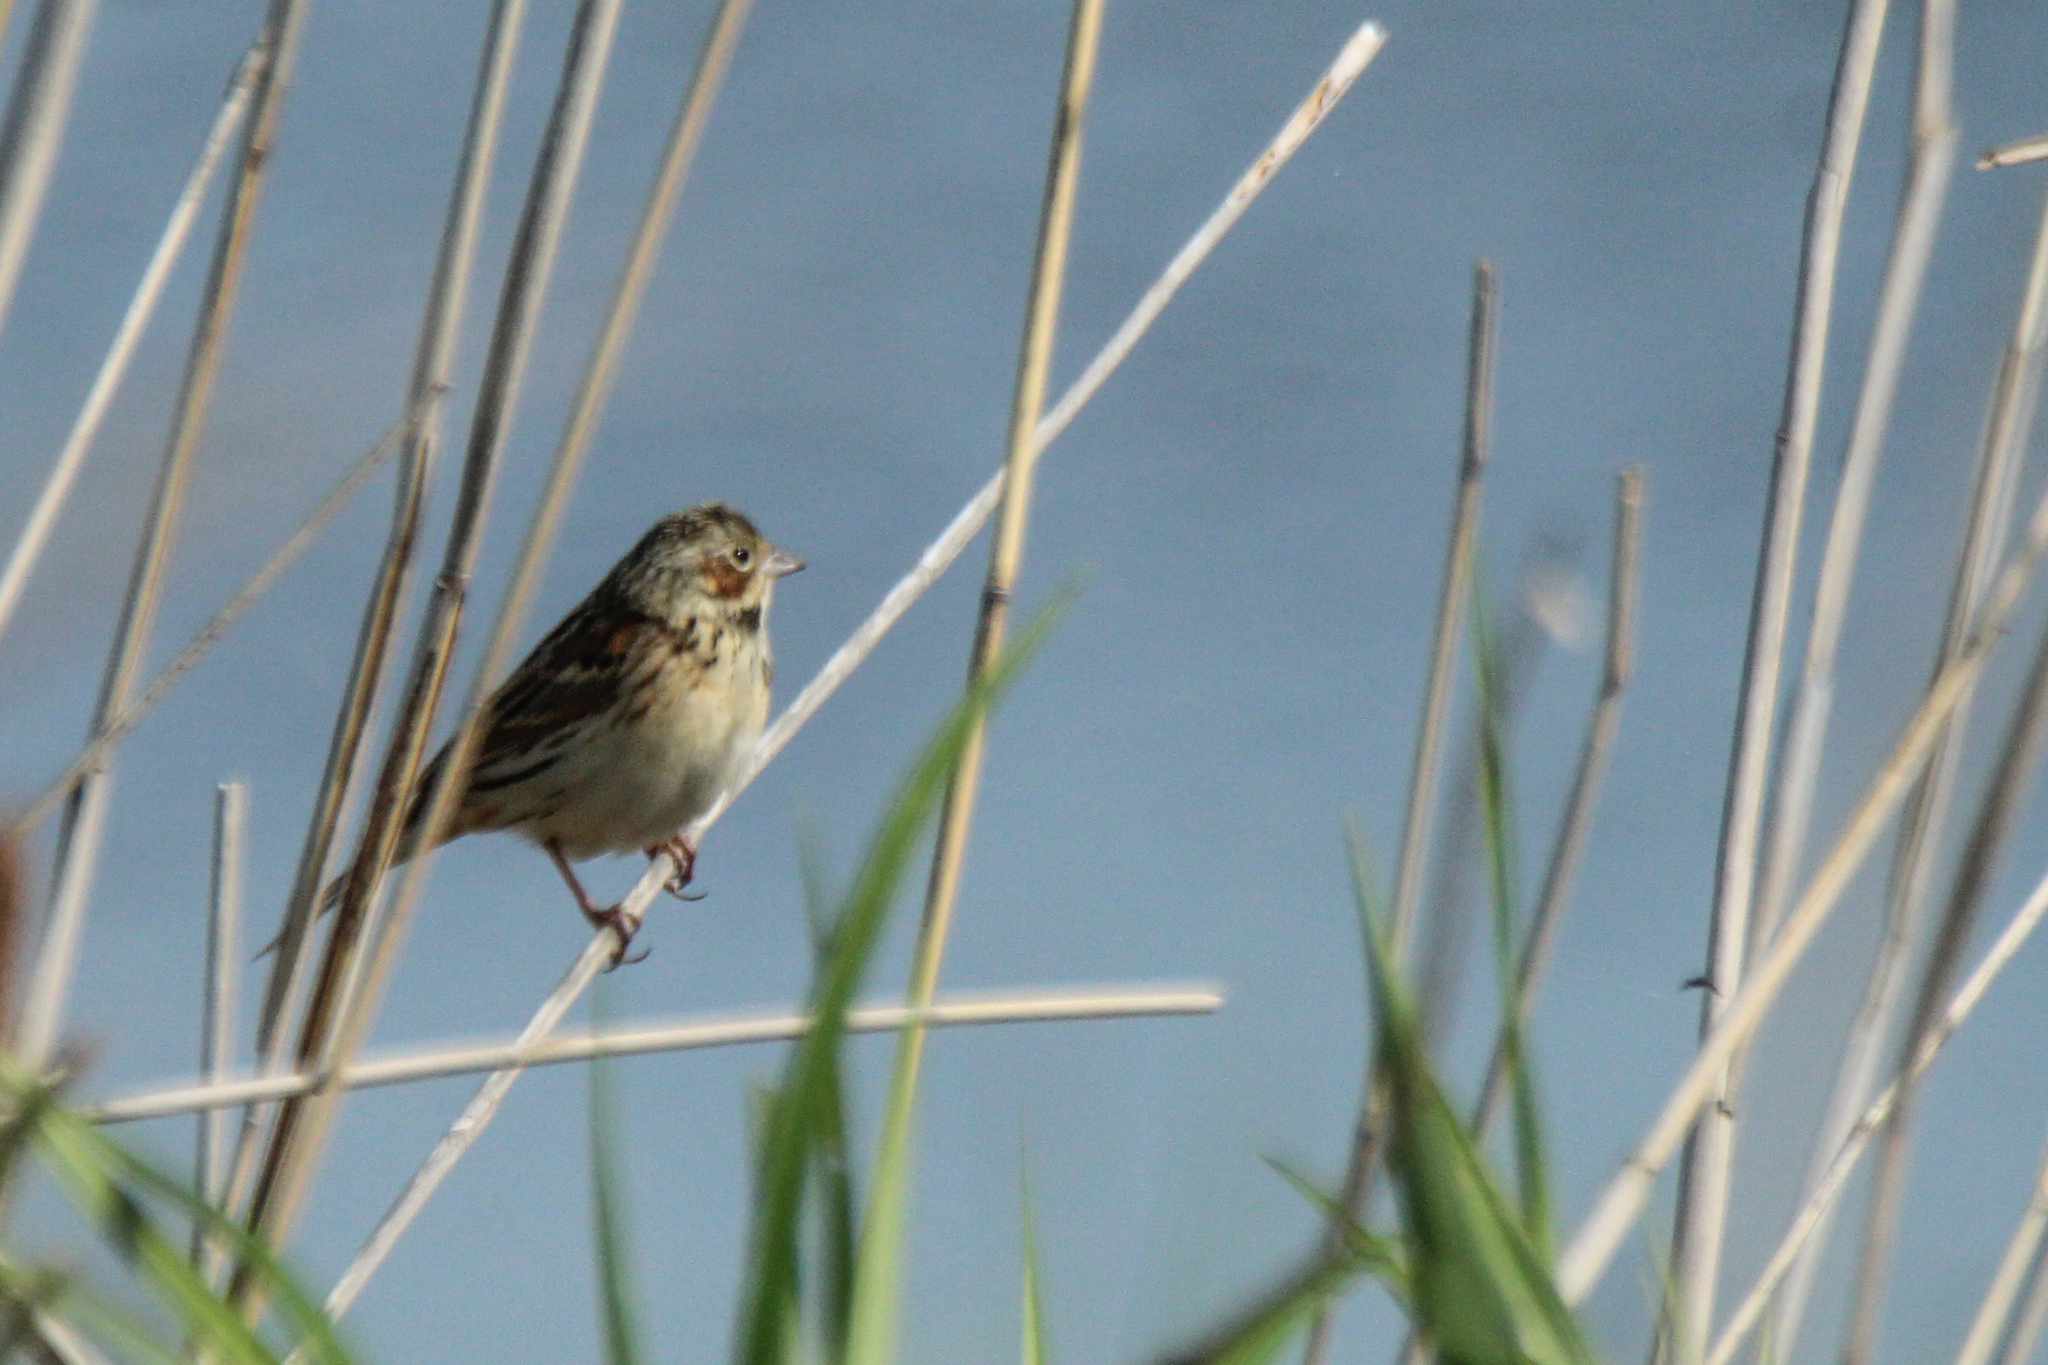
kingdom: Animalia
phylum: Chordata
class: Aves
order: Passeriformes
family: Emberizidae
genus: Emberiza
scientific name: Emberiza fucata
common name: Chestnut-eared bunting
